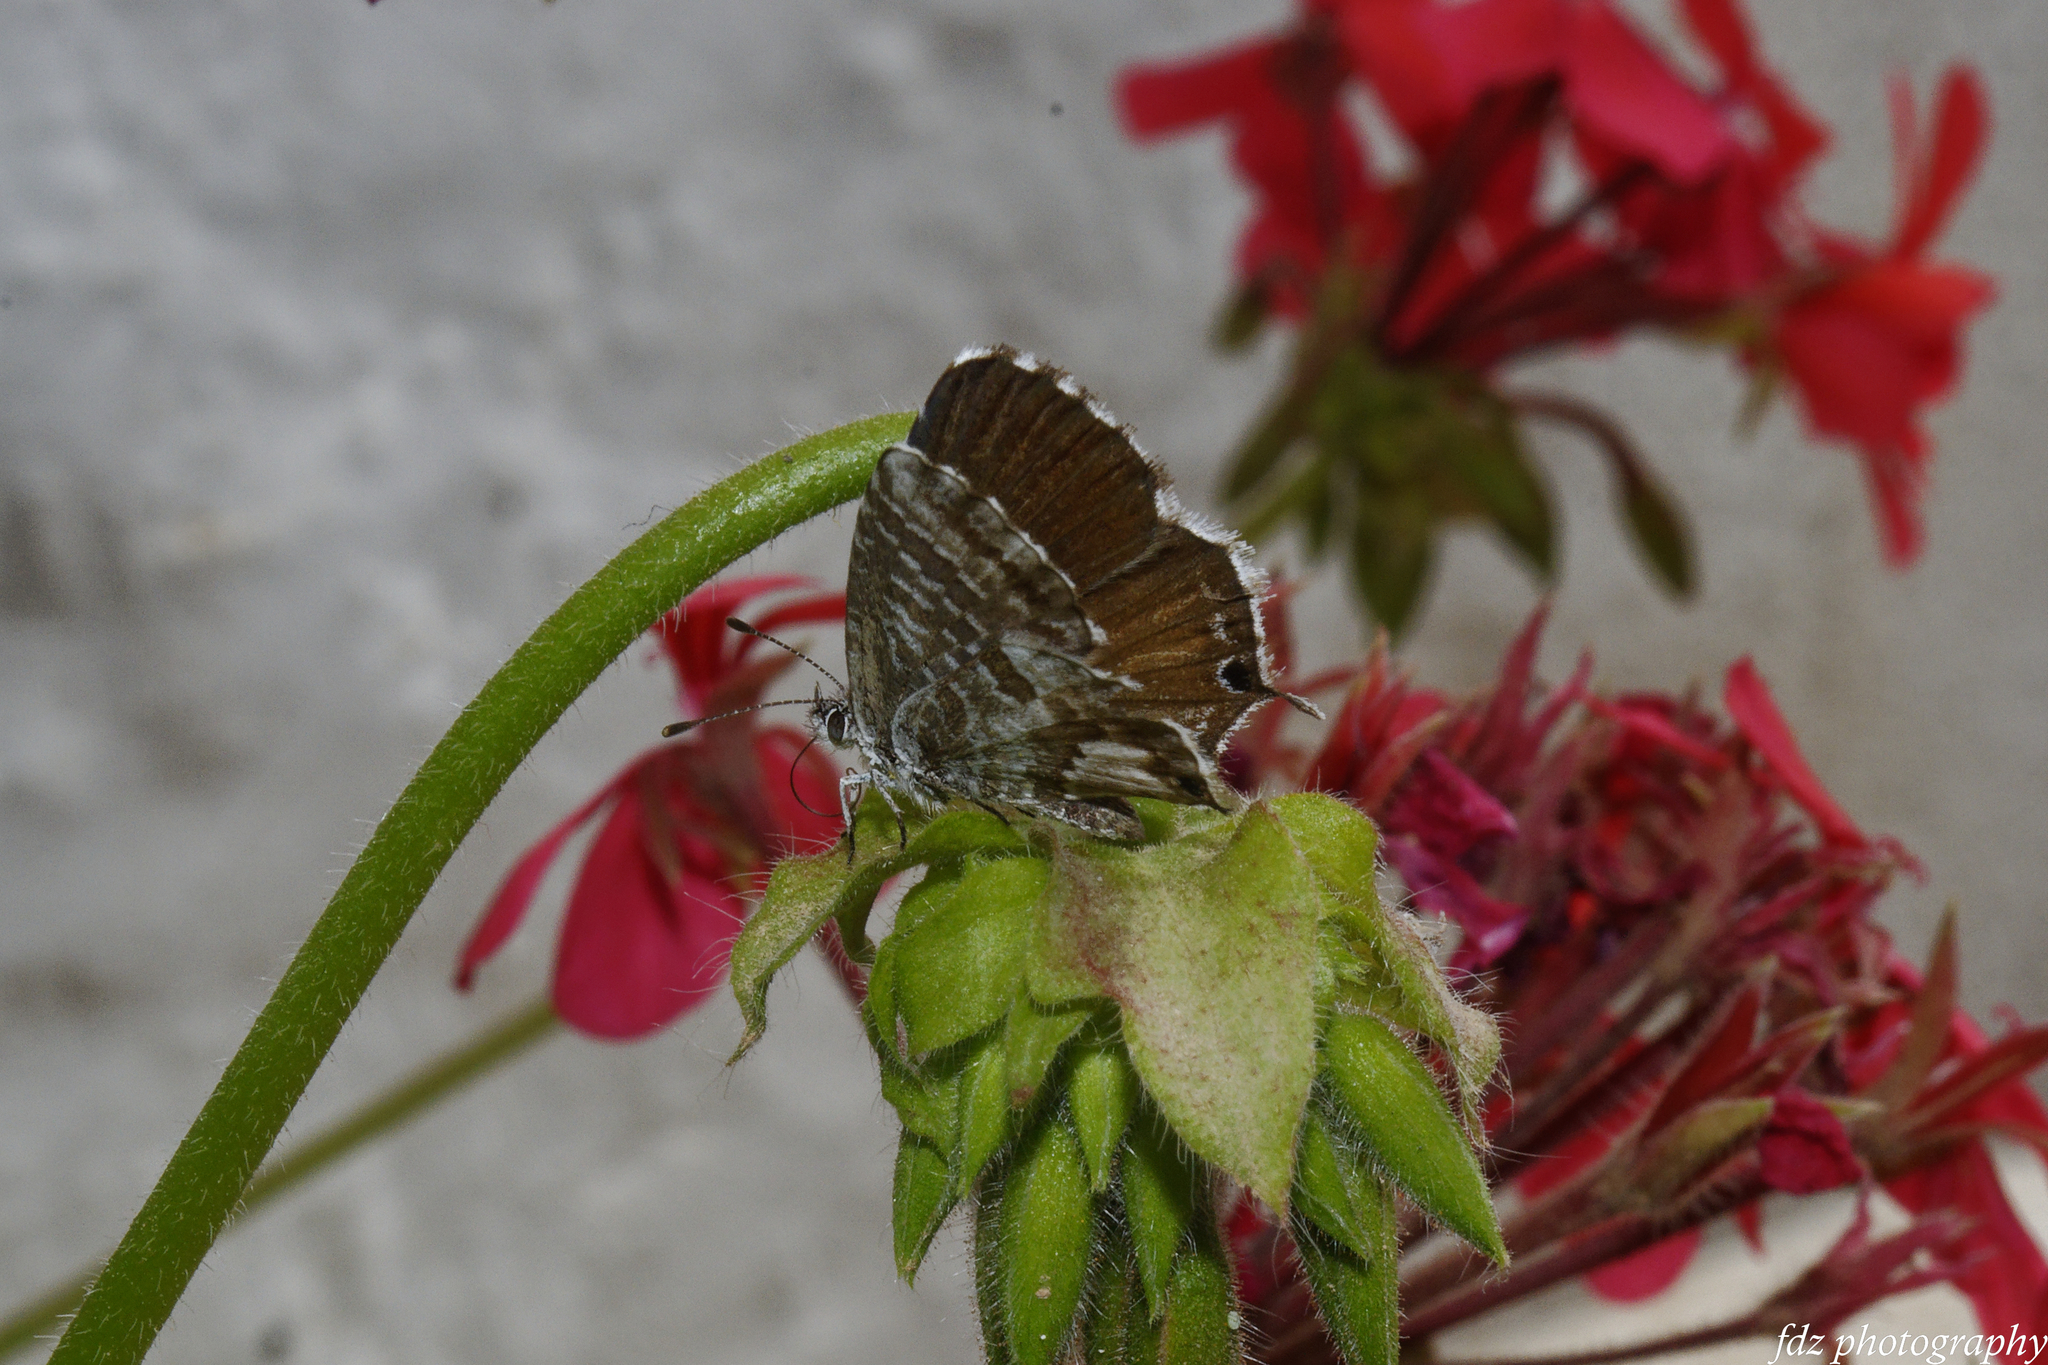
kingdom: Animalia
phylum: Arthropoda
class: Insecta
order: Lepidoptera
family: Lycaenidae
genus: Cacyreus
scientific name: Cacyreus marshalli
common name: Geranium bronze
